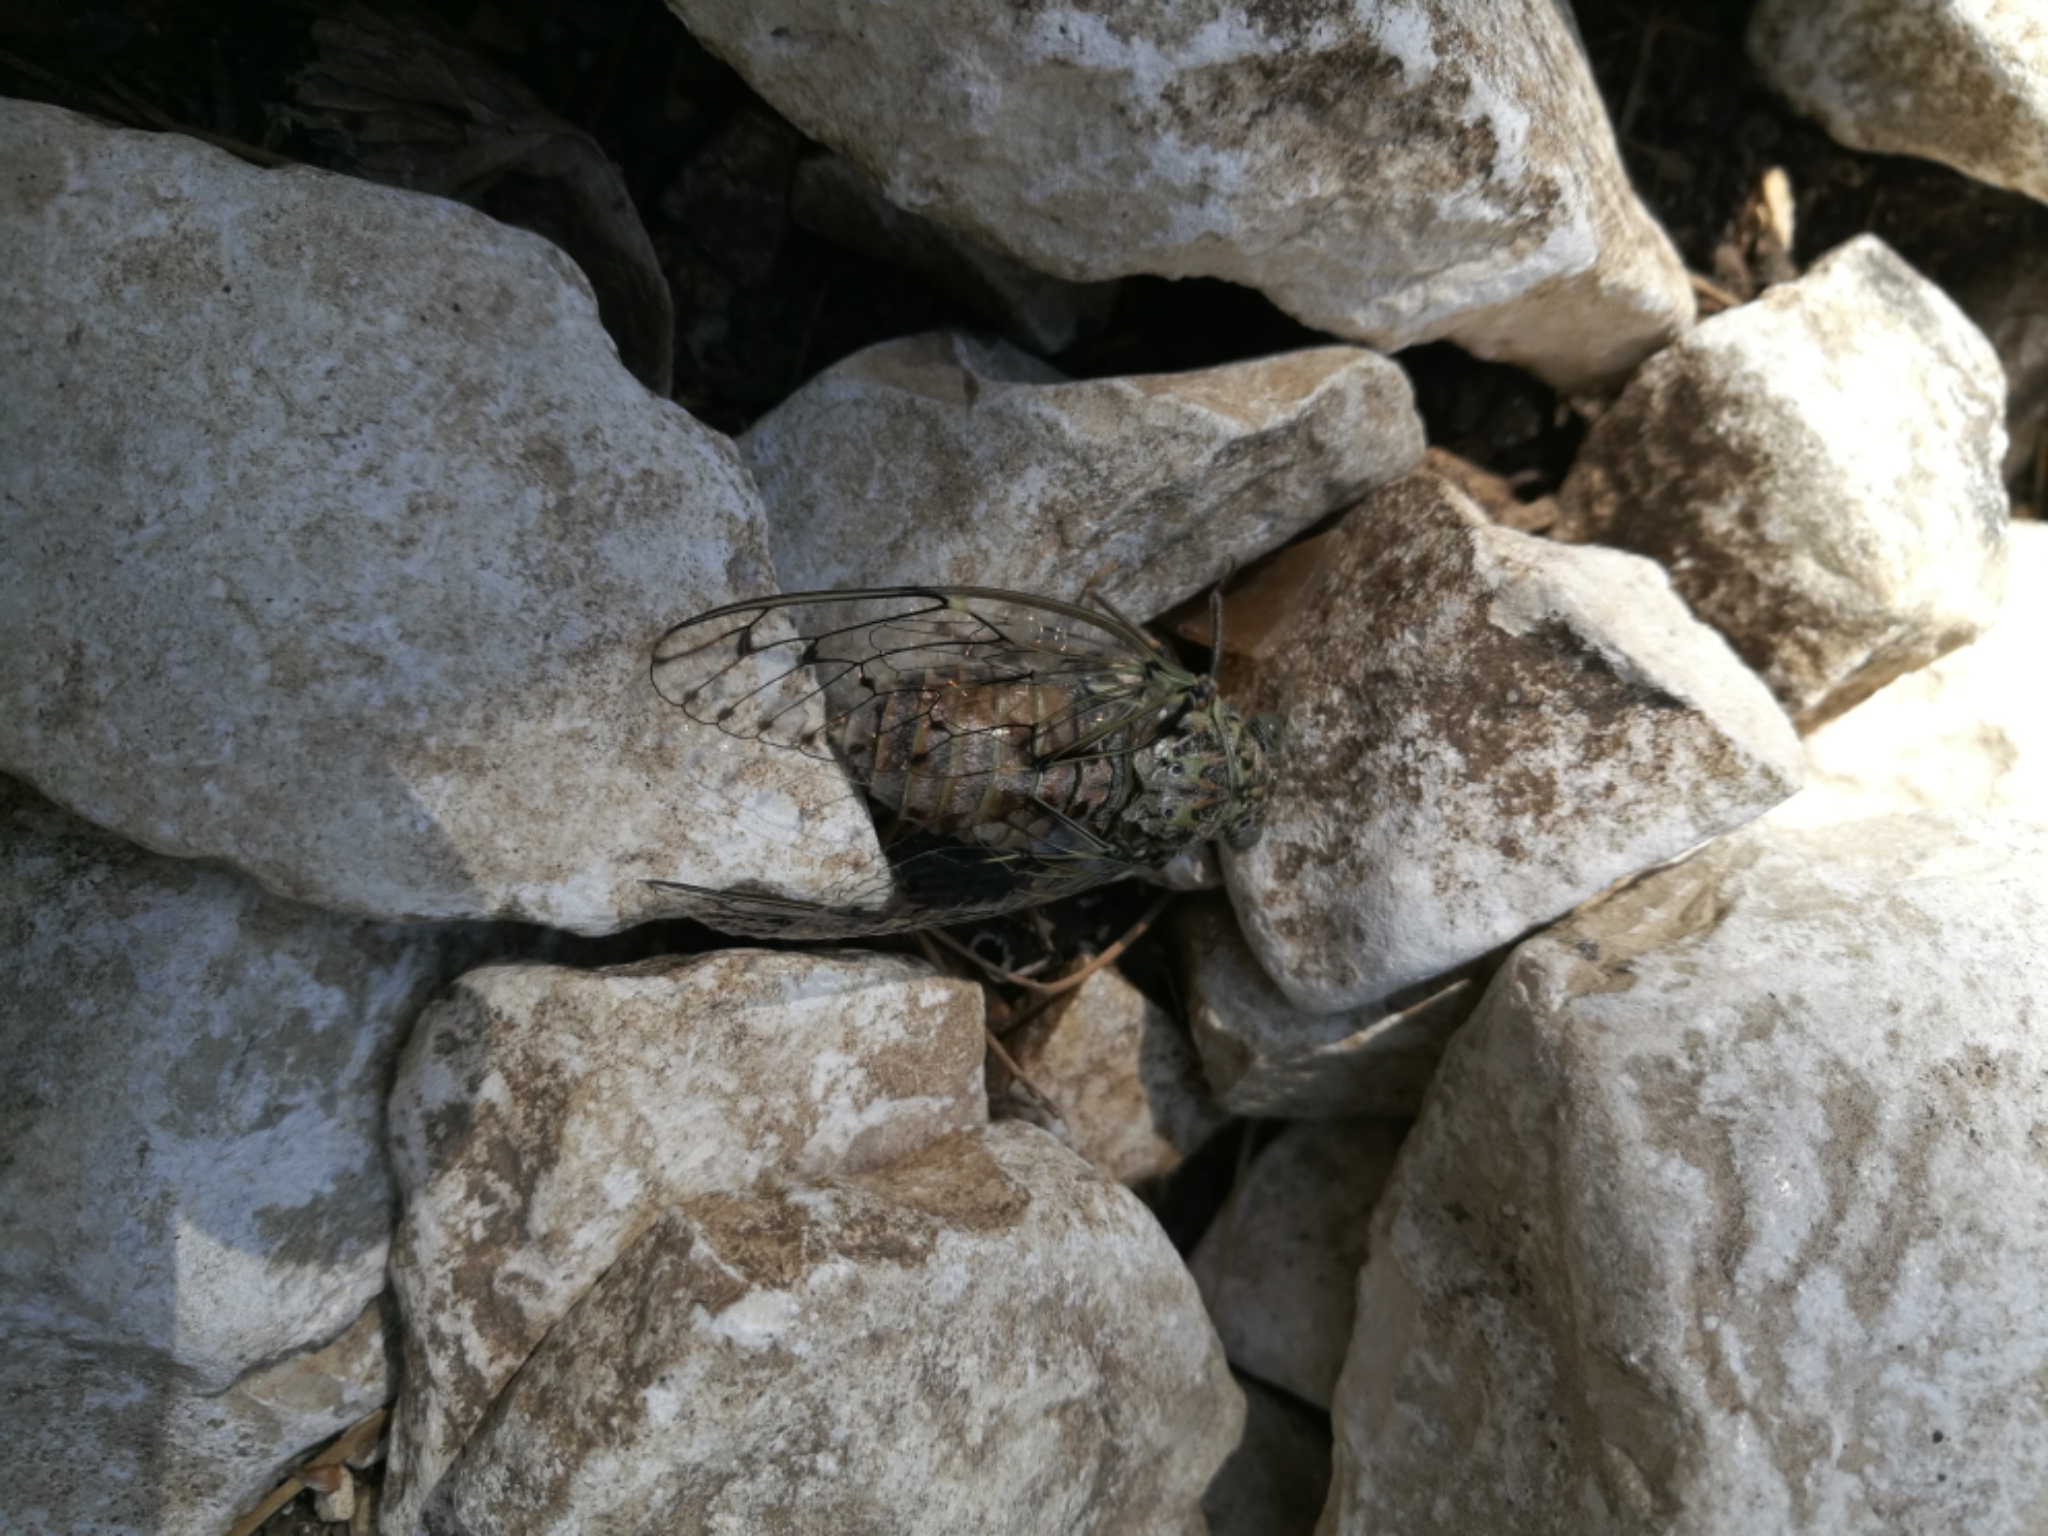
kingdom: Animalia
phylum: Arthropoda
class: Insecta
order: Hemiptera
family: Cicadidae
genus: Cicada
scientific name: Cicada orni
